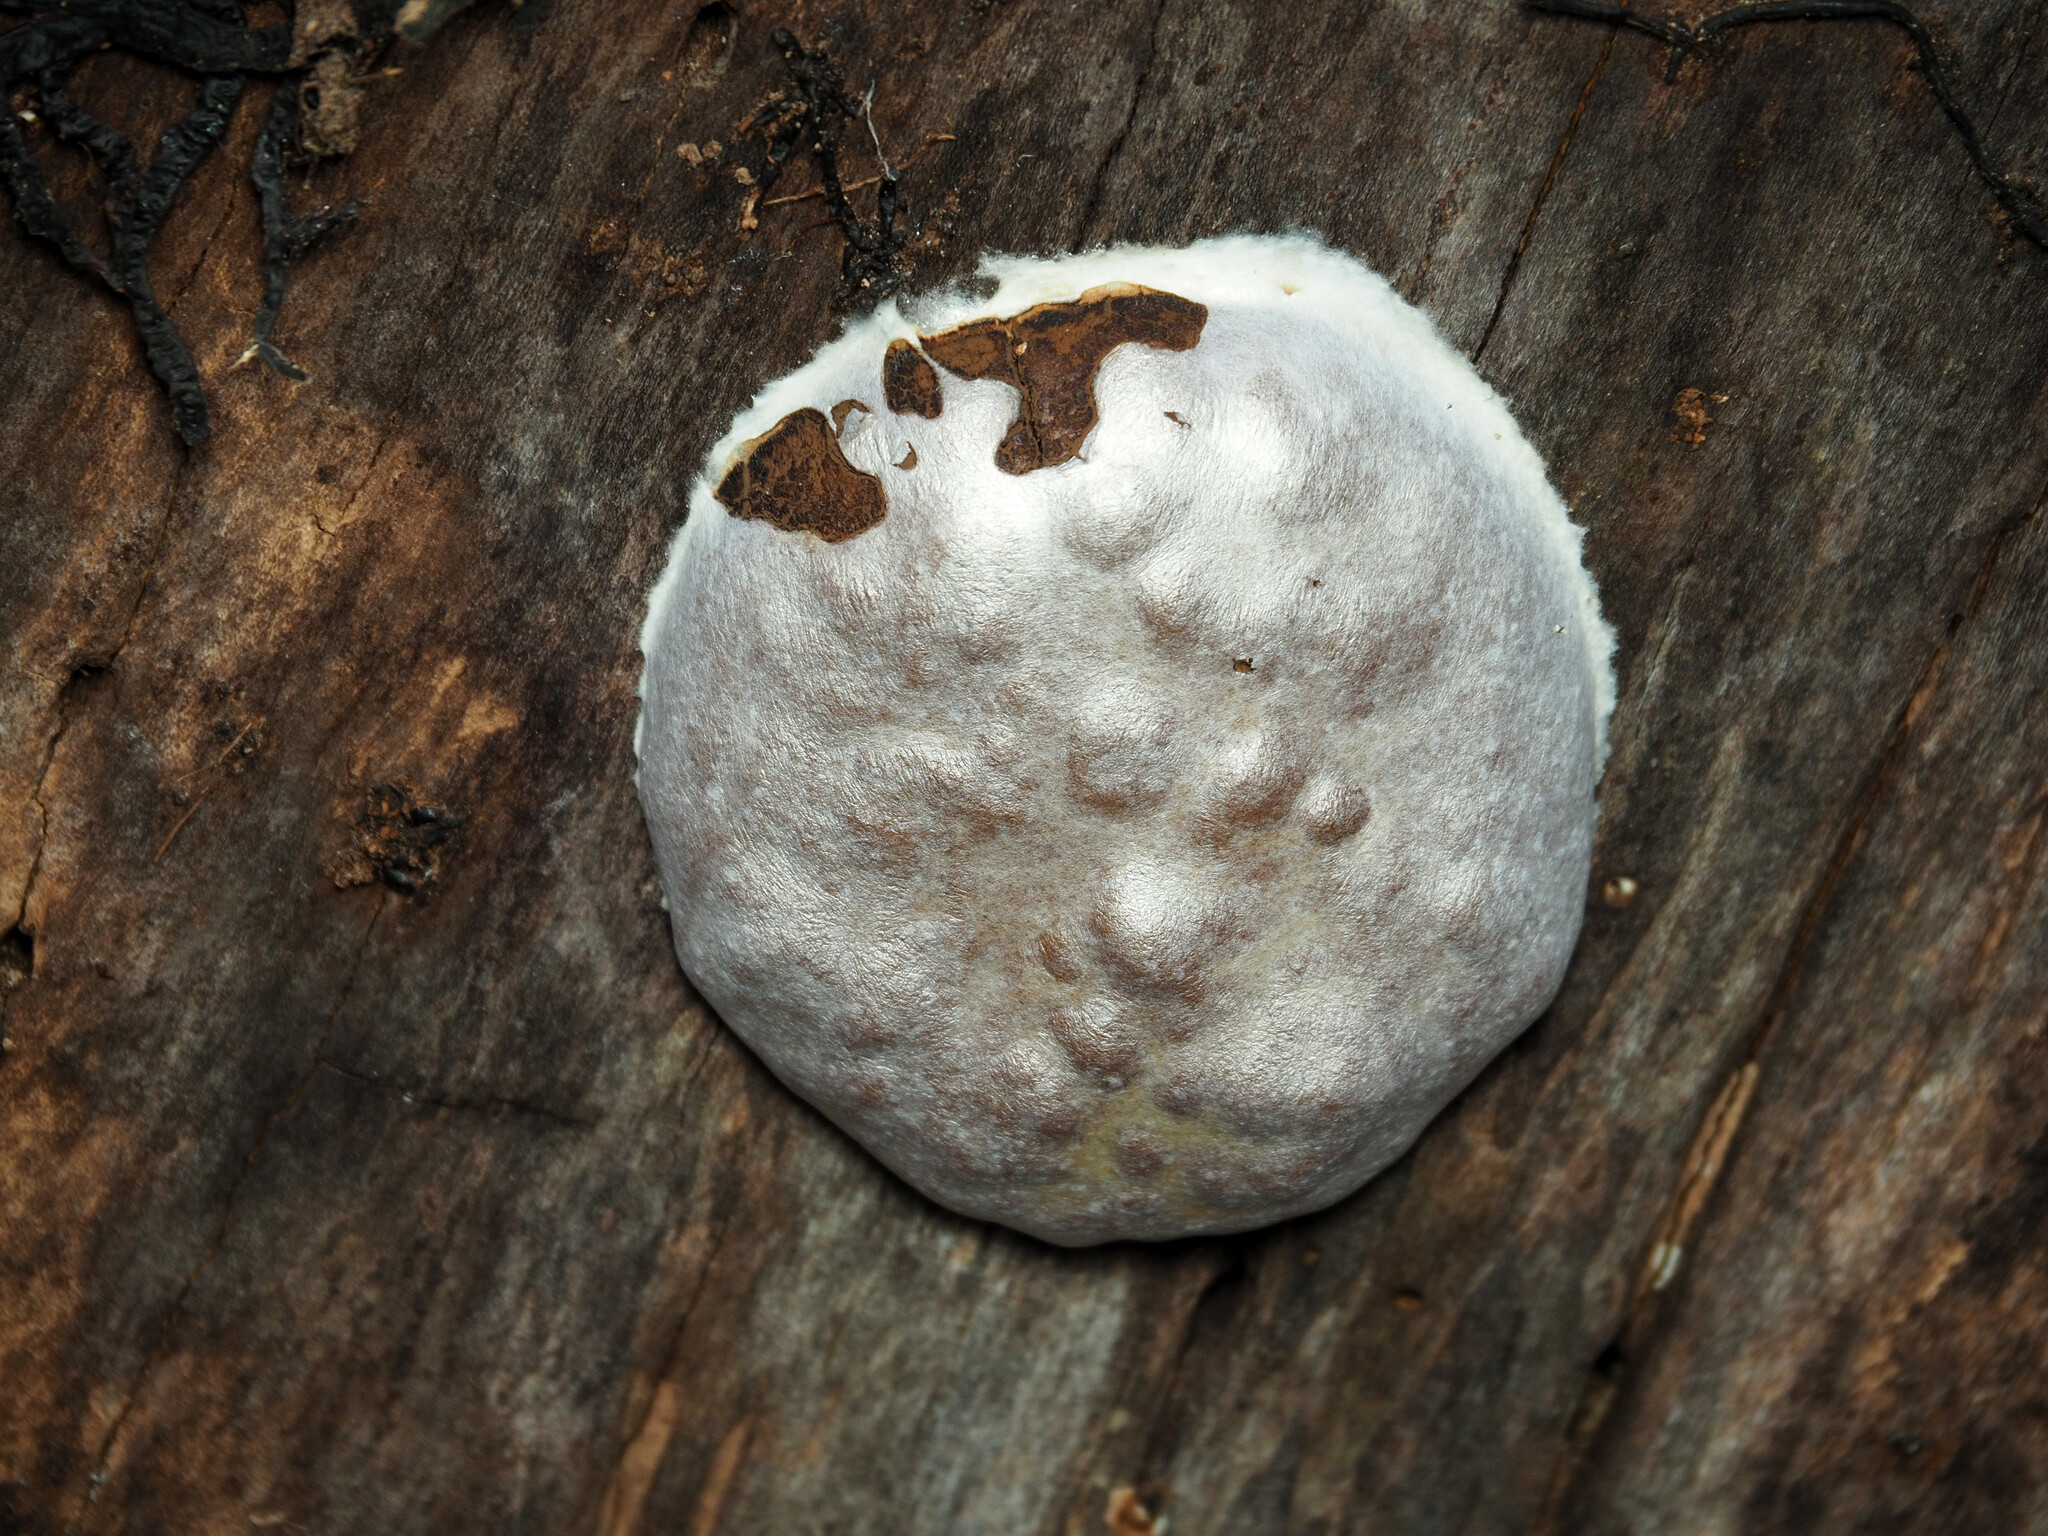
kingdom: Protozoa
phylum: Mycetozoa
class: Myxomycetes
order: Cribrariales
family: Tubiferaceae
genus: Reticularia
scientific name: Reticularia lycoperdon
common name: False puffball
